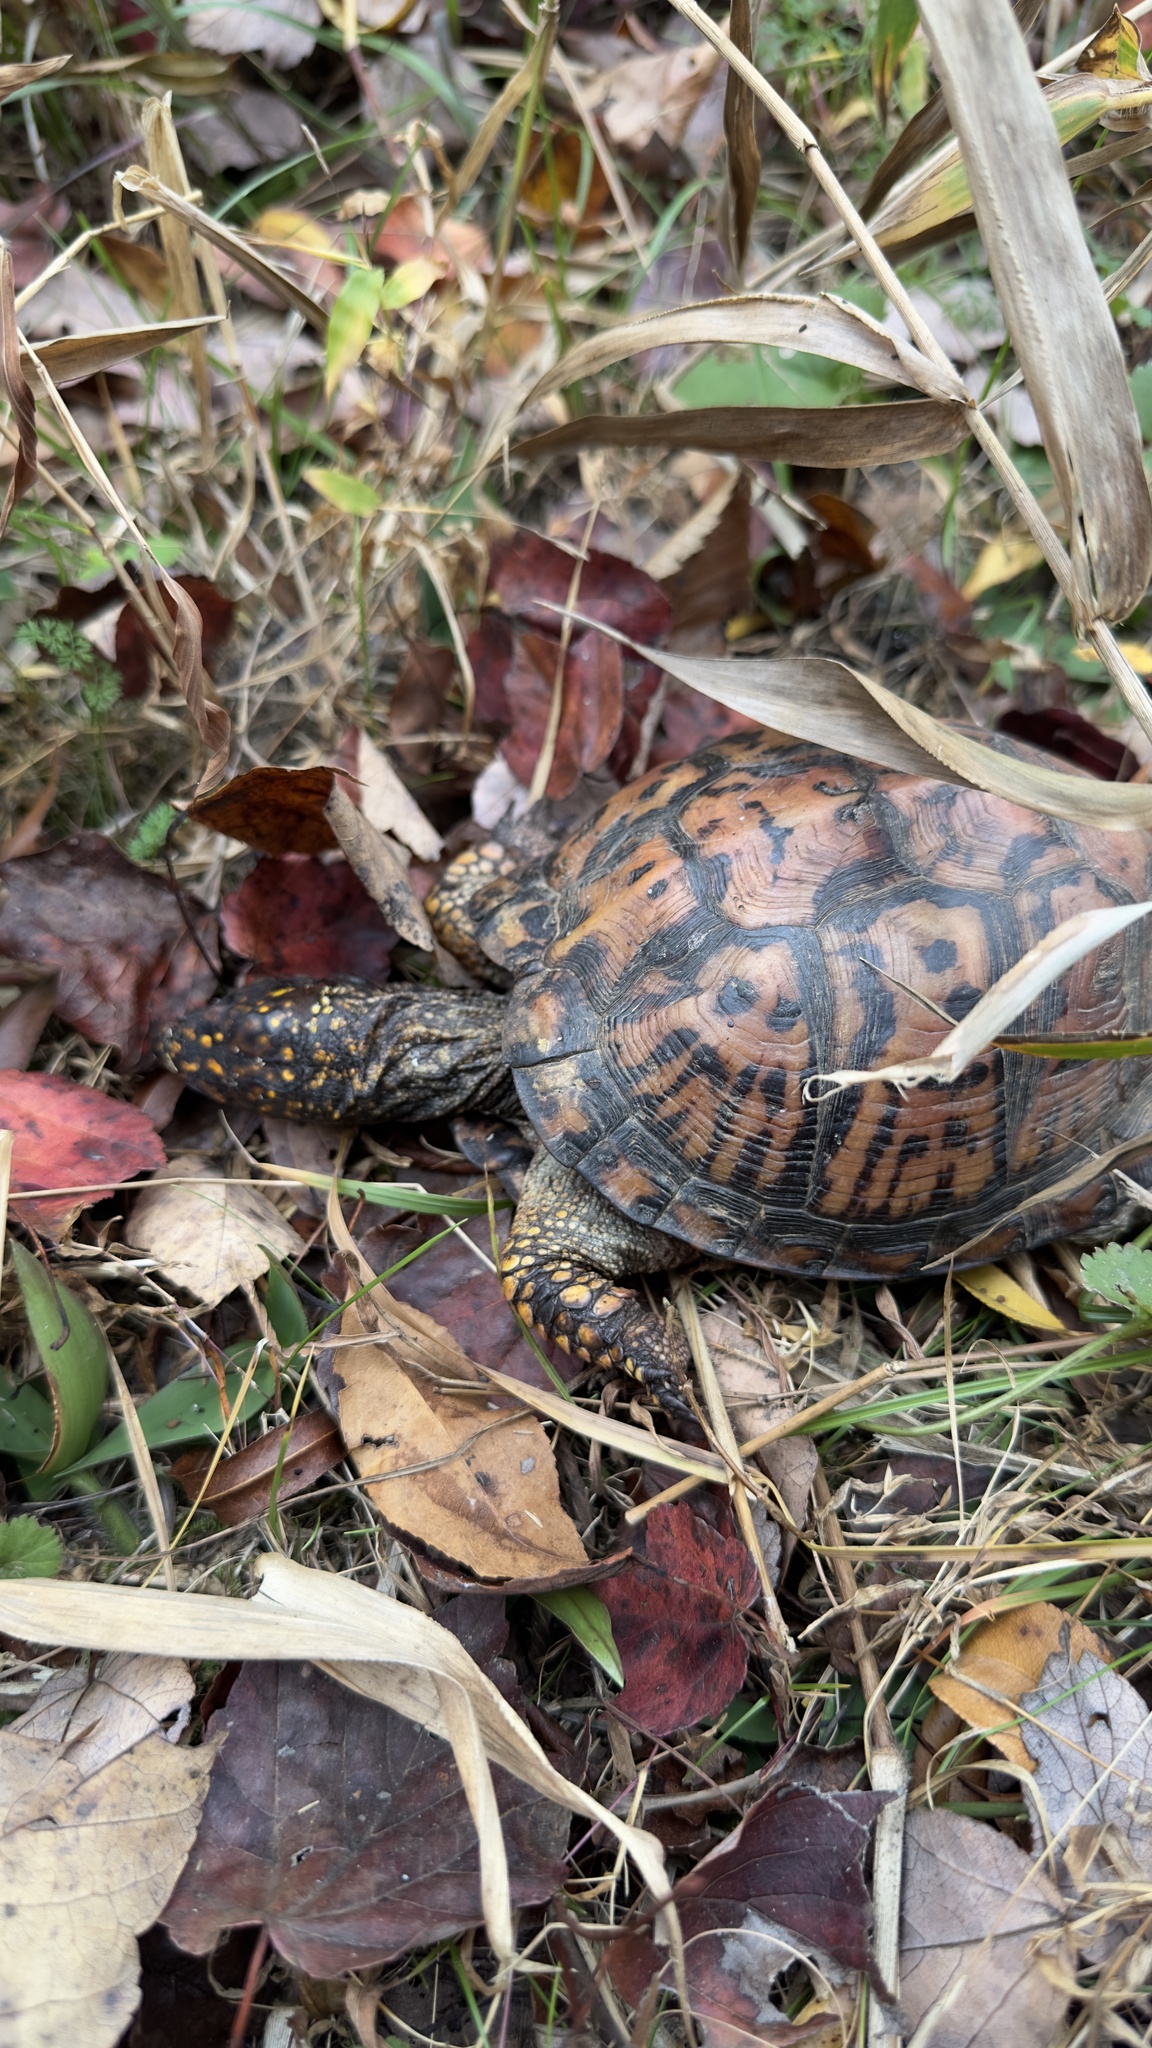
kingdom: Animalia
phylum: Chordata
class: Testudines
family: Emydidae
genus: Terrapene
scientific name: Terrapene carolina
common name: Common box turtle
